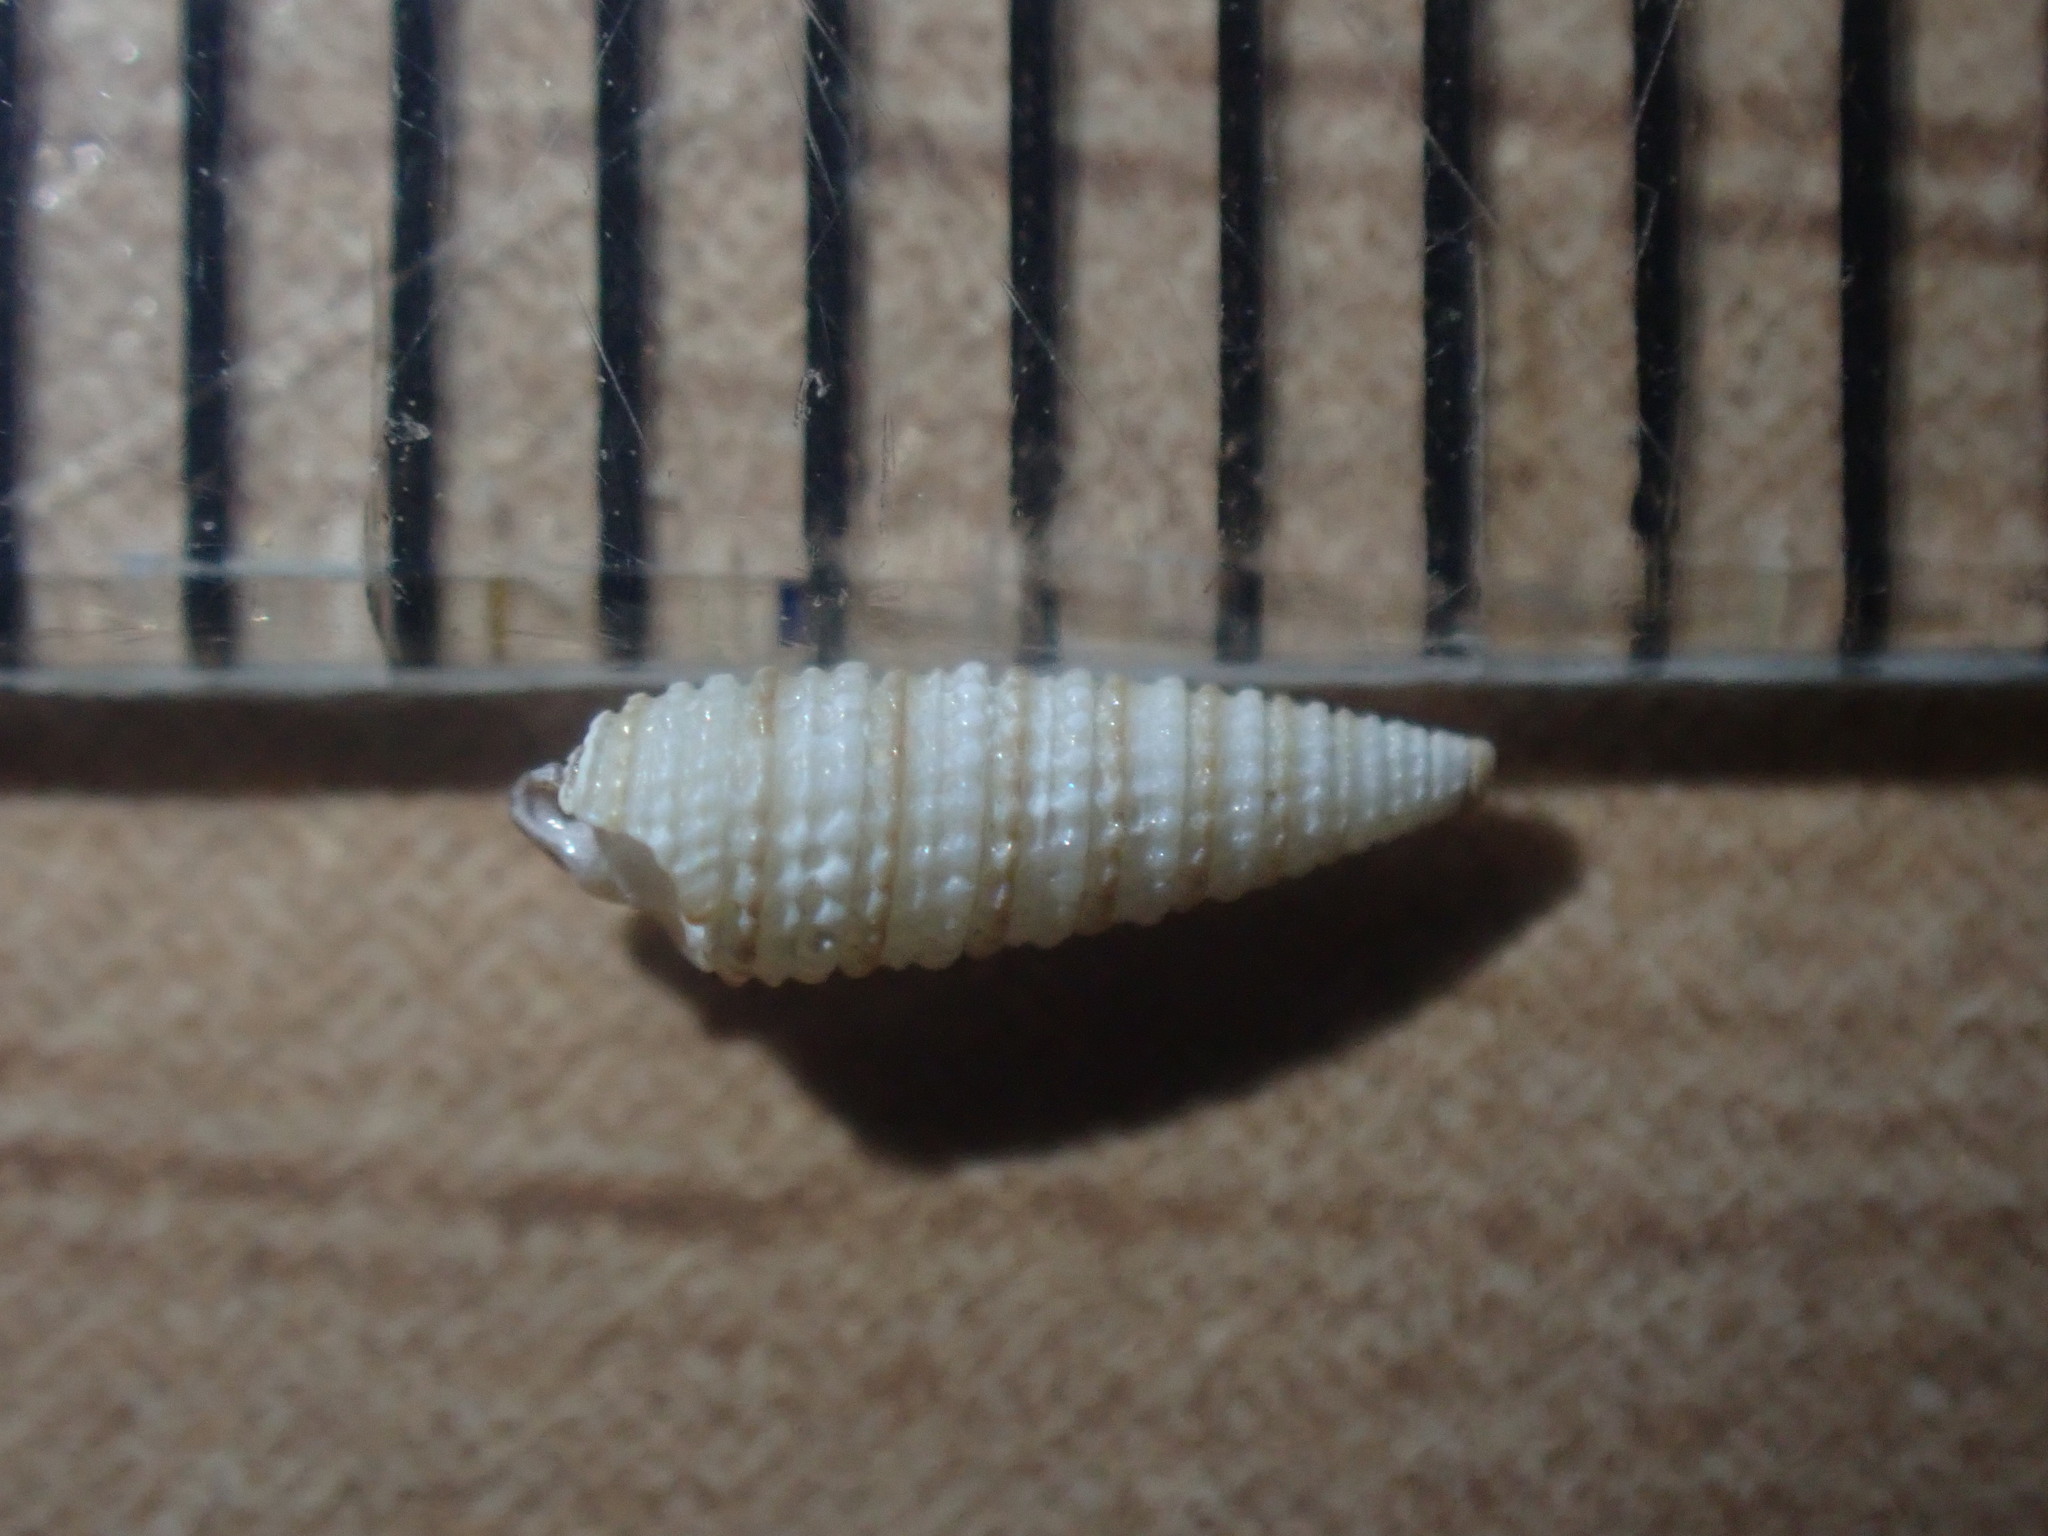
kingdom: Animalia
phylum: Mollusca
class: Gastropoda
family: Triphoridae
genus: Nototriphora
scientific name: Nototriphora regina
